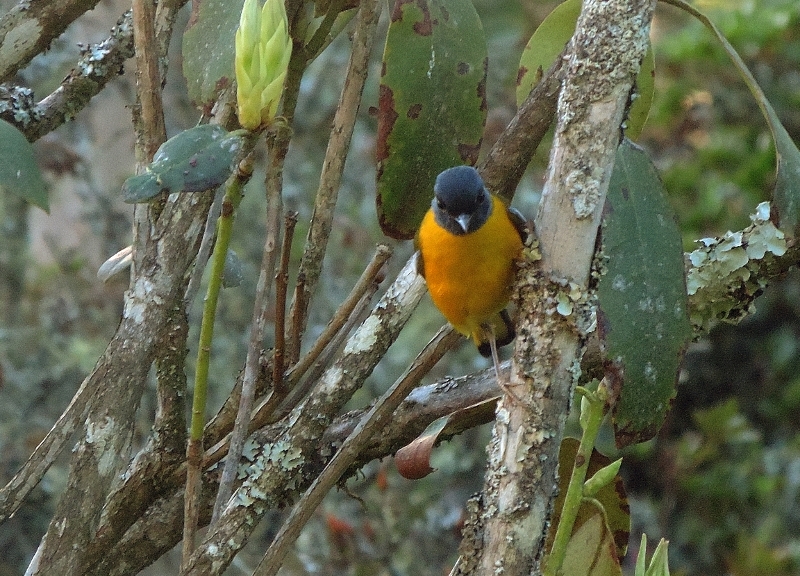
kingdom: Animalia
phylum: Chordata
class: Aves
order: Passeriformes
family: Muscicapidae
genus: Pogonocichla
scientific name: Pogonocichla stellata
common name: White-starred robin
